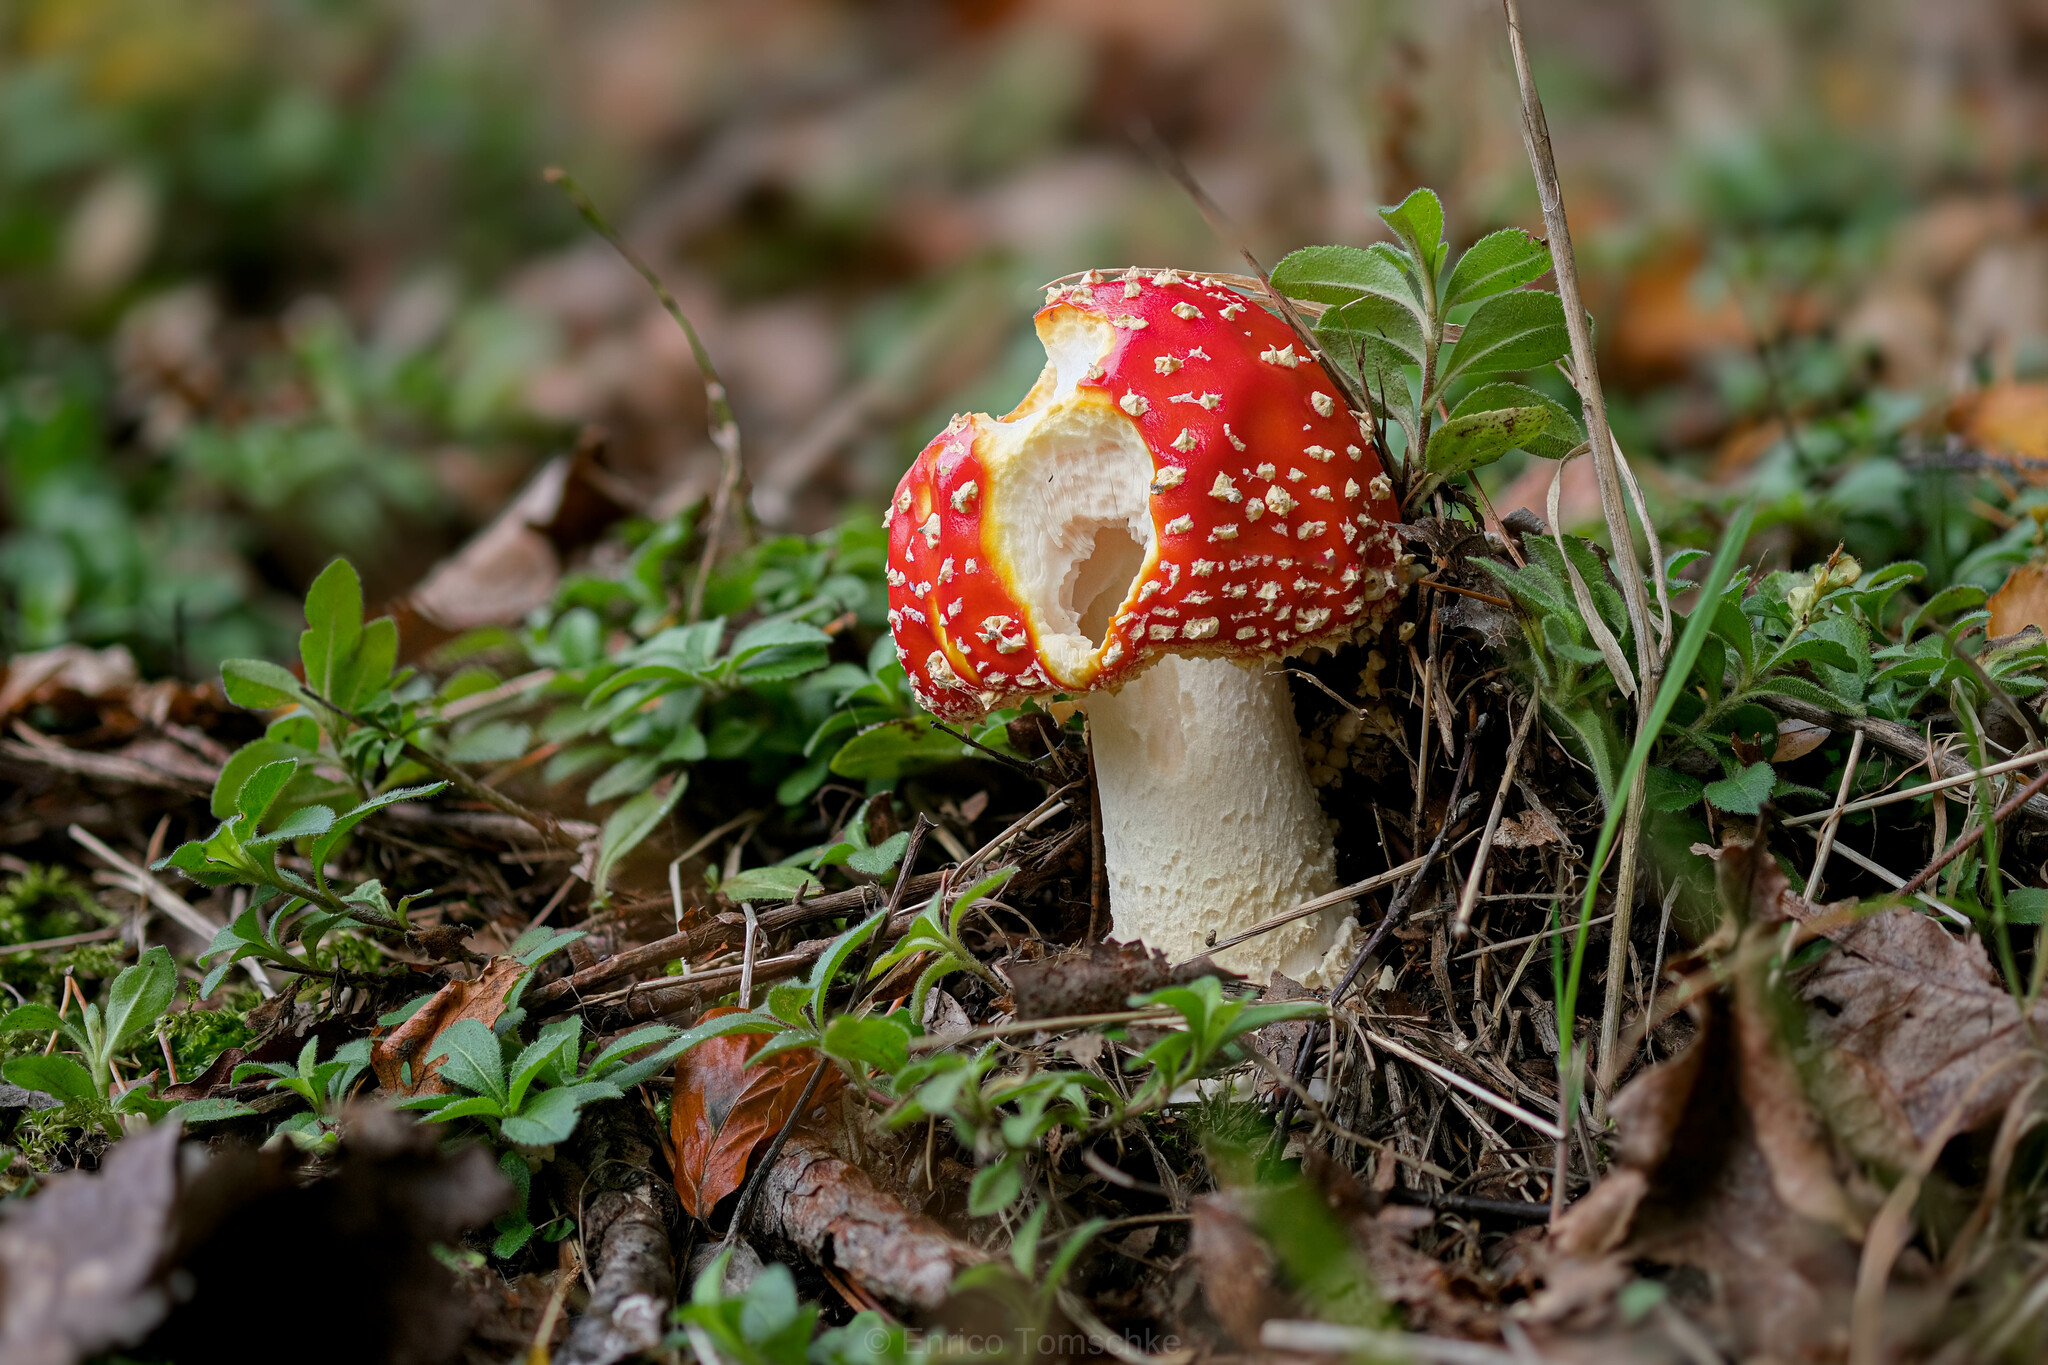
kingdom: Fungi
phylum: Basidiomycota
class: Agaricomycetes
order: Agaricales
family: Amanitaceae
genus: Amanita
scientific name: Amanita muscaria
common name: Fly agaric
